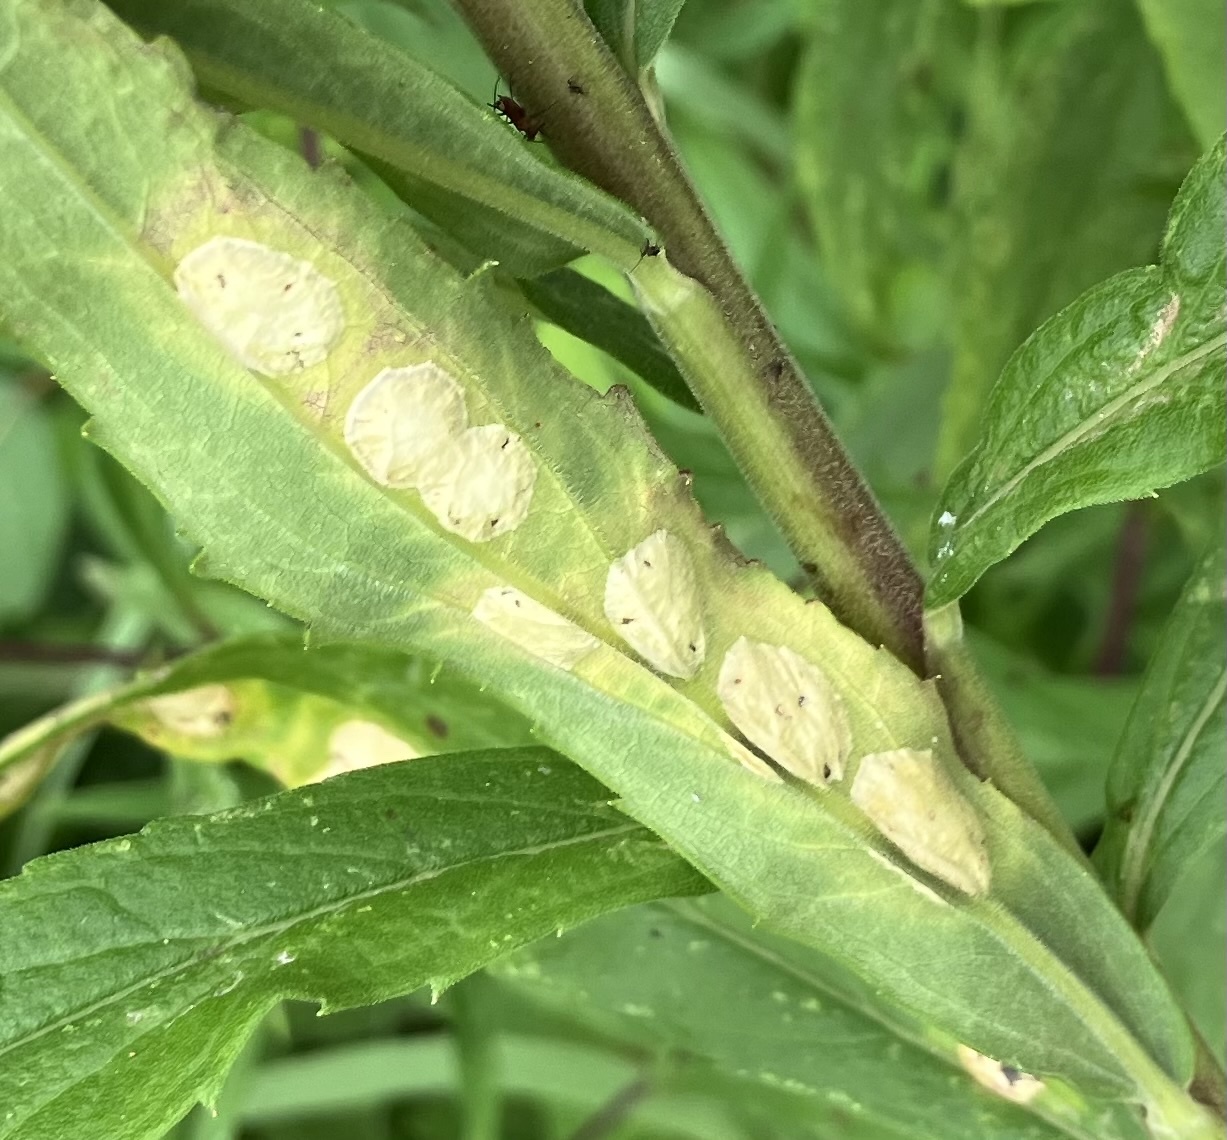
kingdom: Animalia
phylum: Arthropoda
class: Insecta
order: Diptera
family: Cecidomyiidae
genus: Asteromyia
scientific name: Asteromyia carbonifera
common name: Carbonifera goldenrod gall midge
